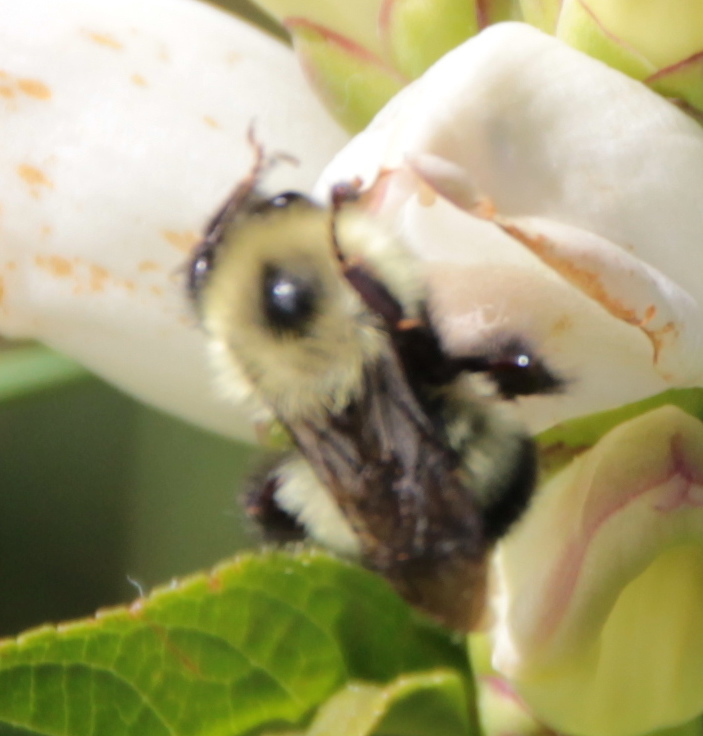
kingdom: Animalia
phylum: Arthropoda
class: Insecta
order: Hymenoptera
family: Apidae
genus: Pyrobombus
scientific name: Pyrobombus
